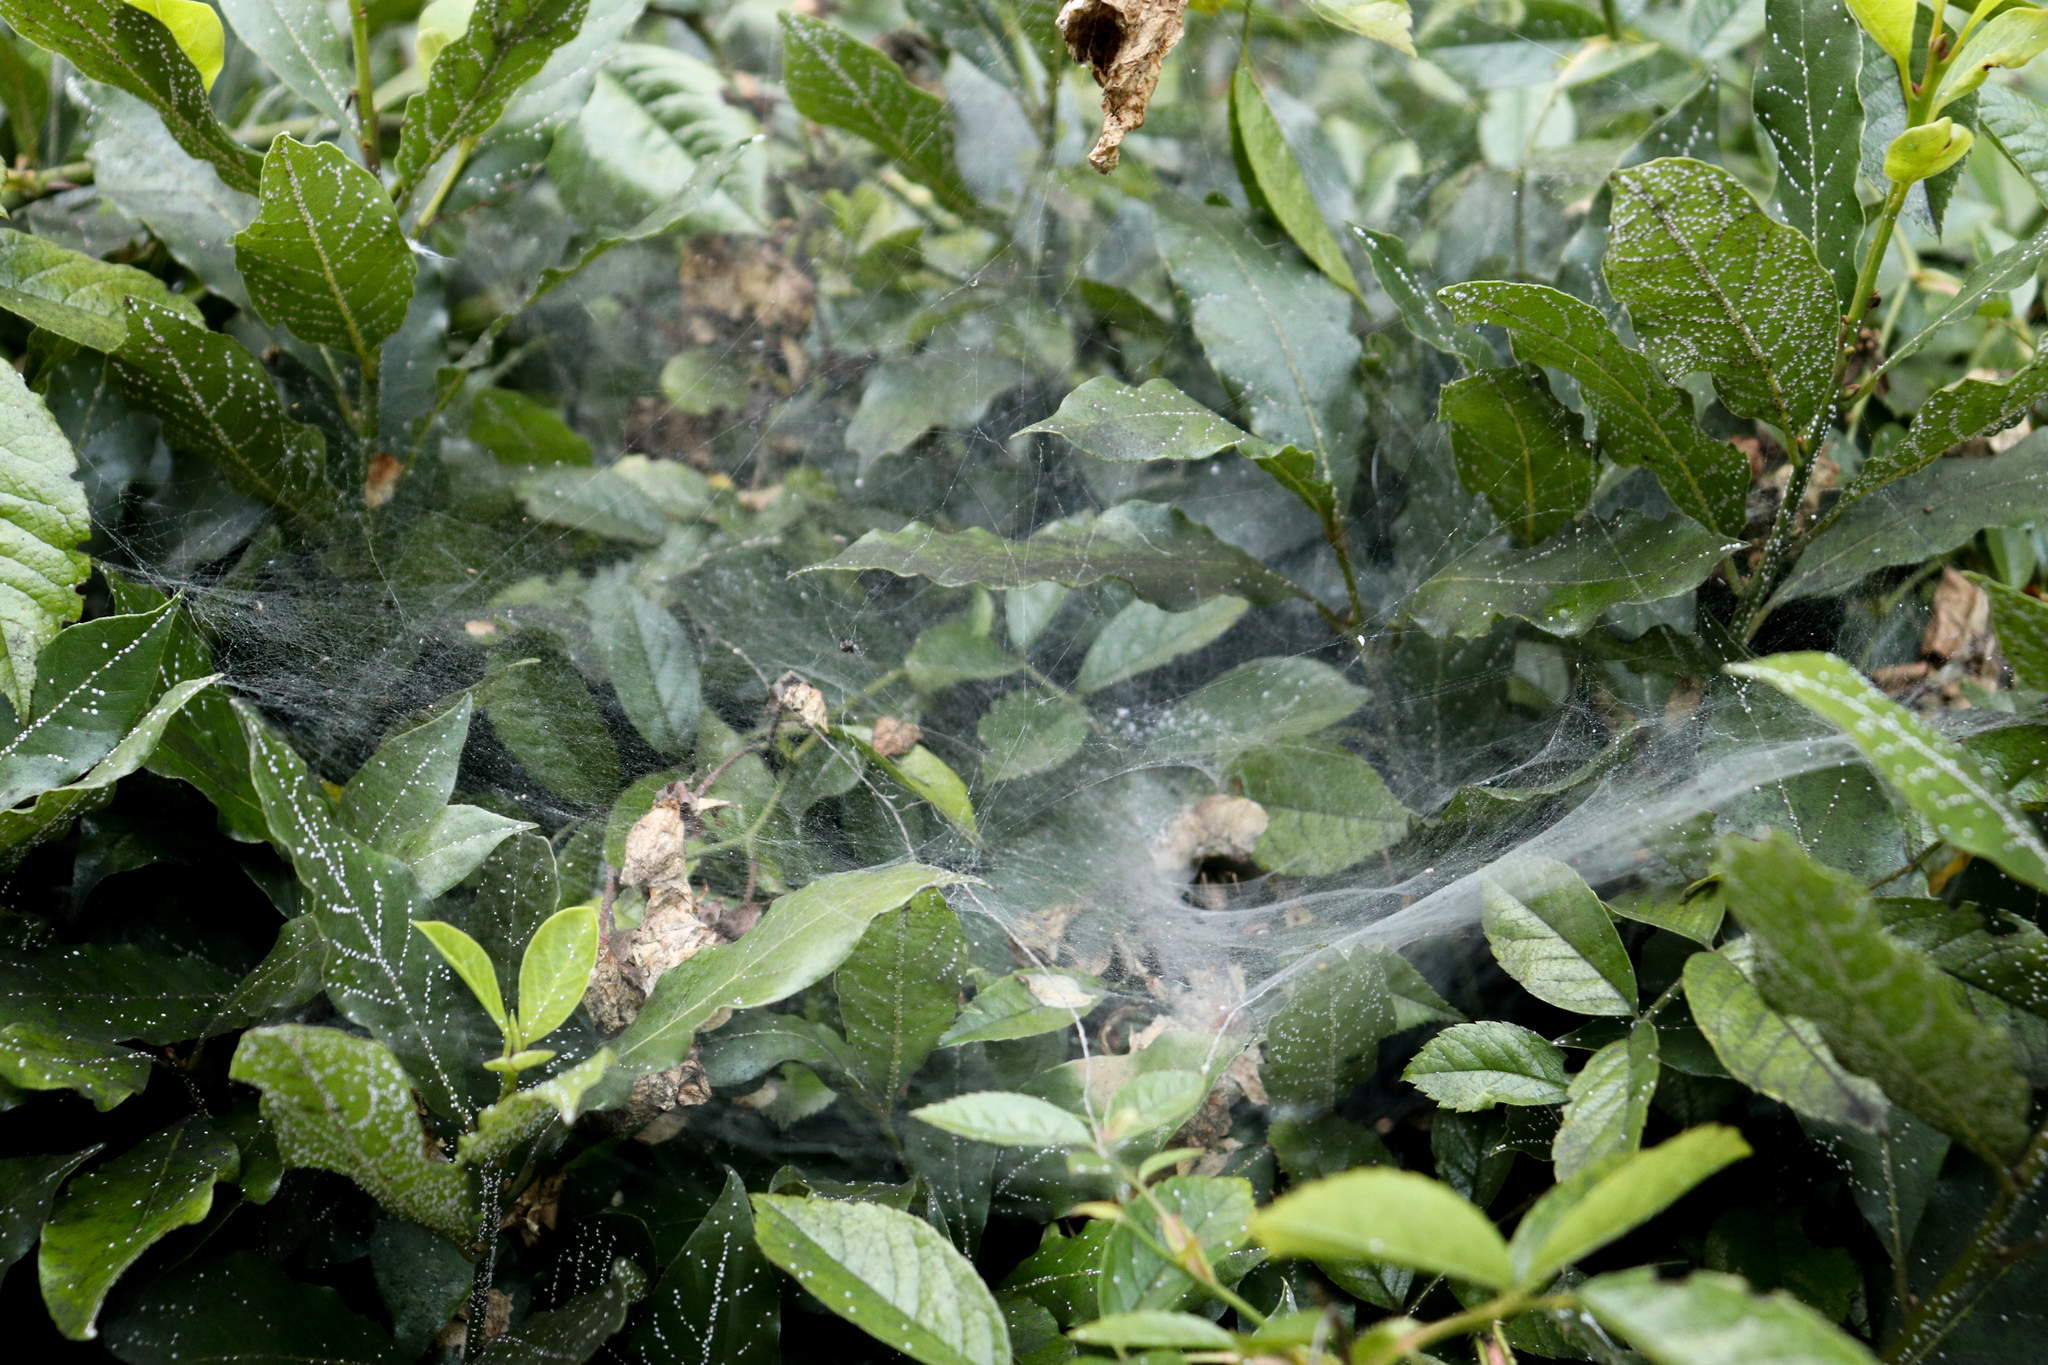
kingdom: Animalia
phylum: Arthropoda
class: Arachnida
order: Araneae
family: Agelenidae
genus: Agelena
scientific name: Agelena labyrinthica
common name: Labyrinth spider
